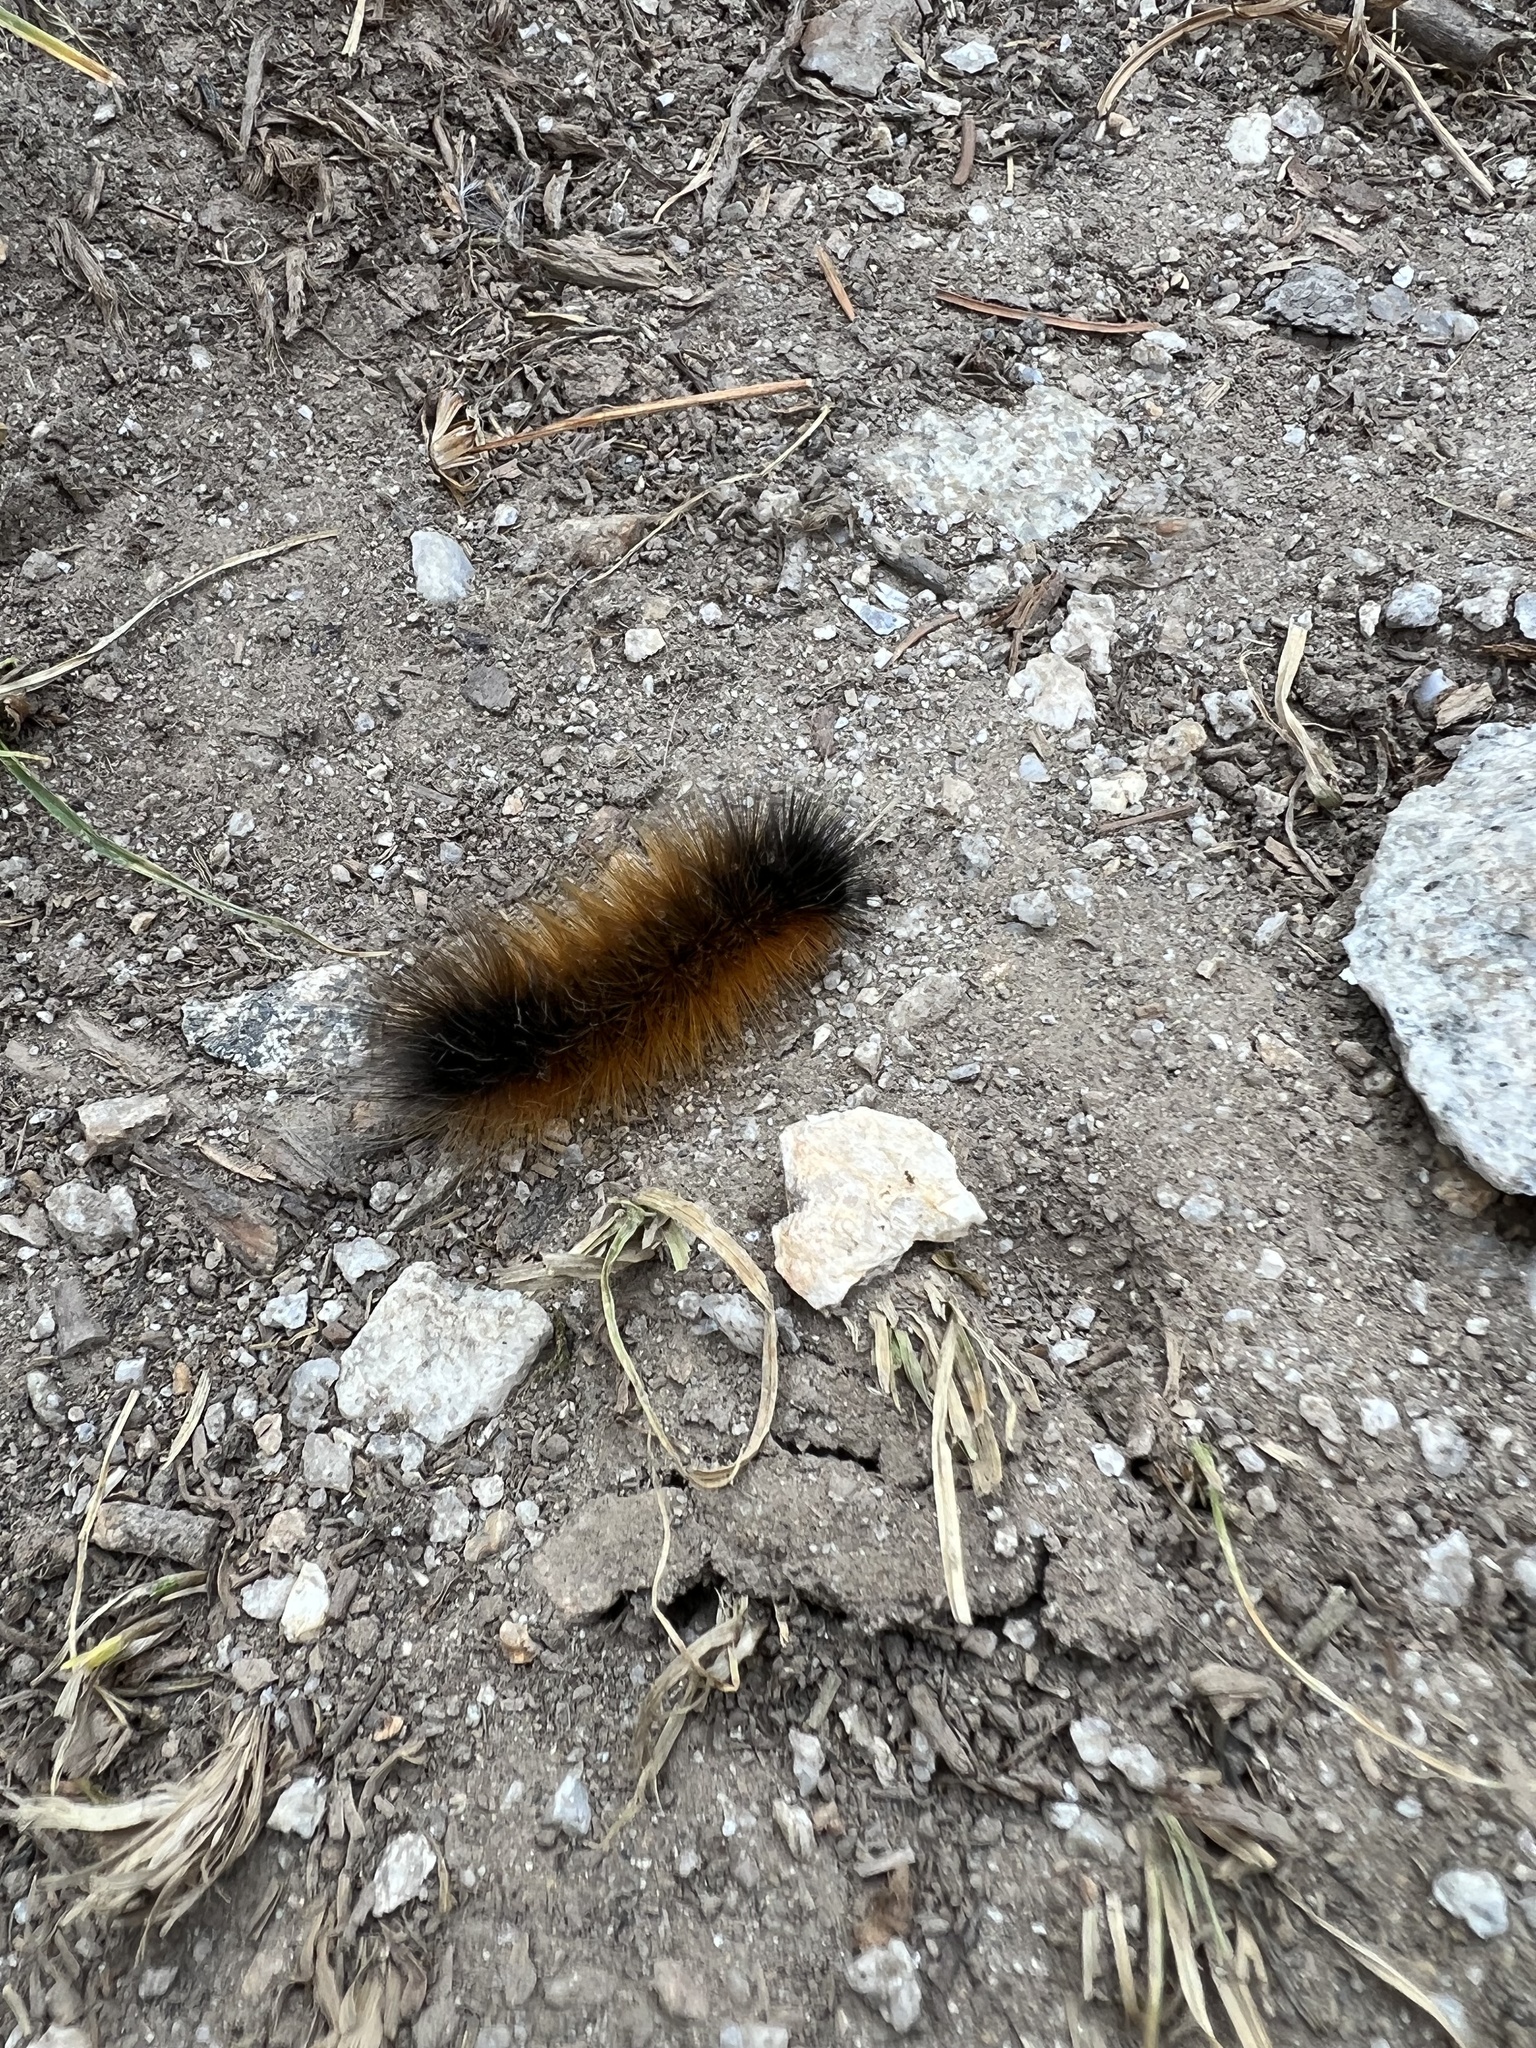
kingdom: Animalia
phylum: Arthropoda
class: Insecta
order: Lepidoptera
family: Erebidae
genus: Pyrrharctia
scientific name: Pyrrharctia isabella
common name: Isabella tiger moth
